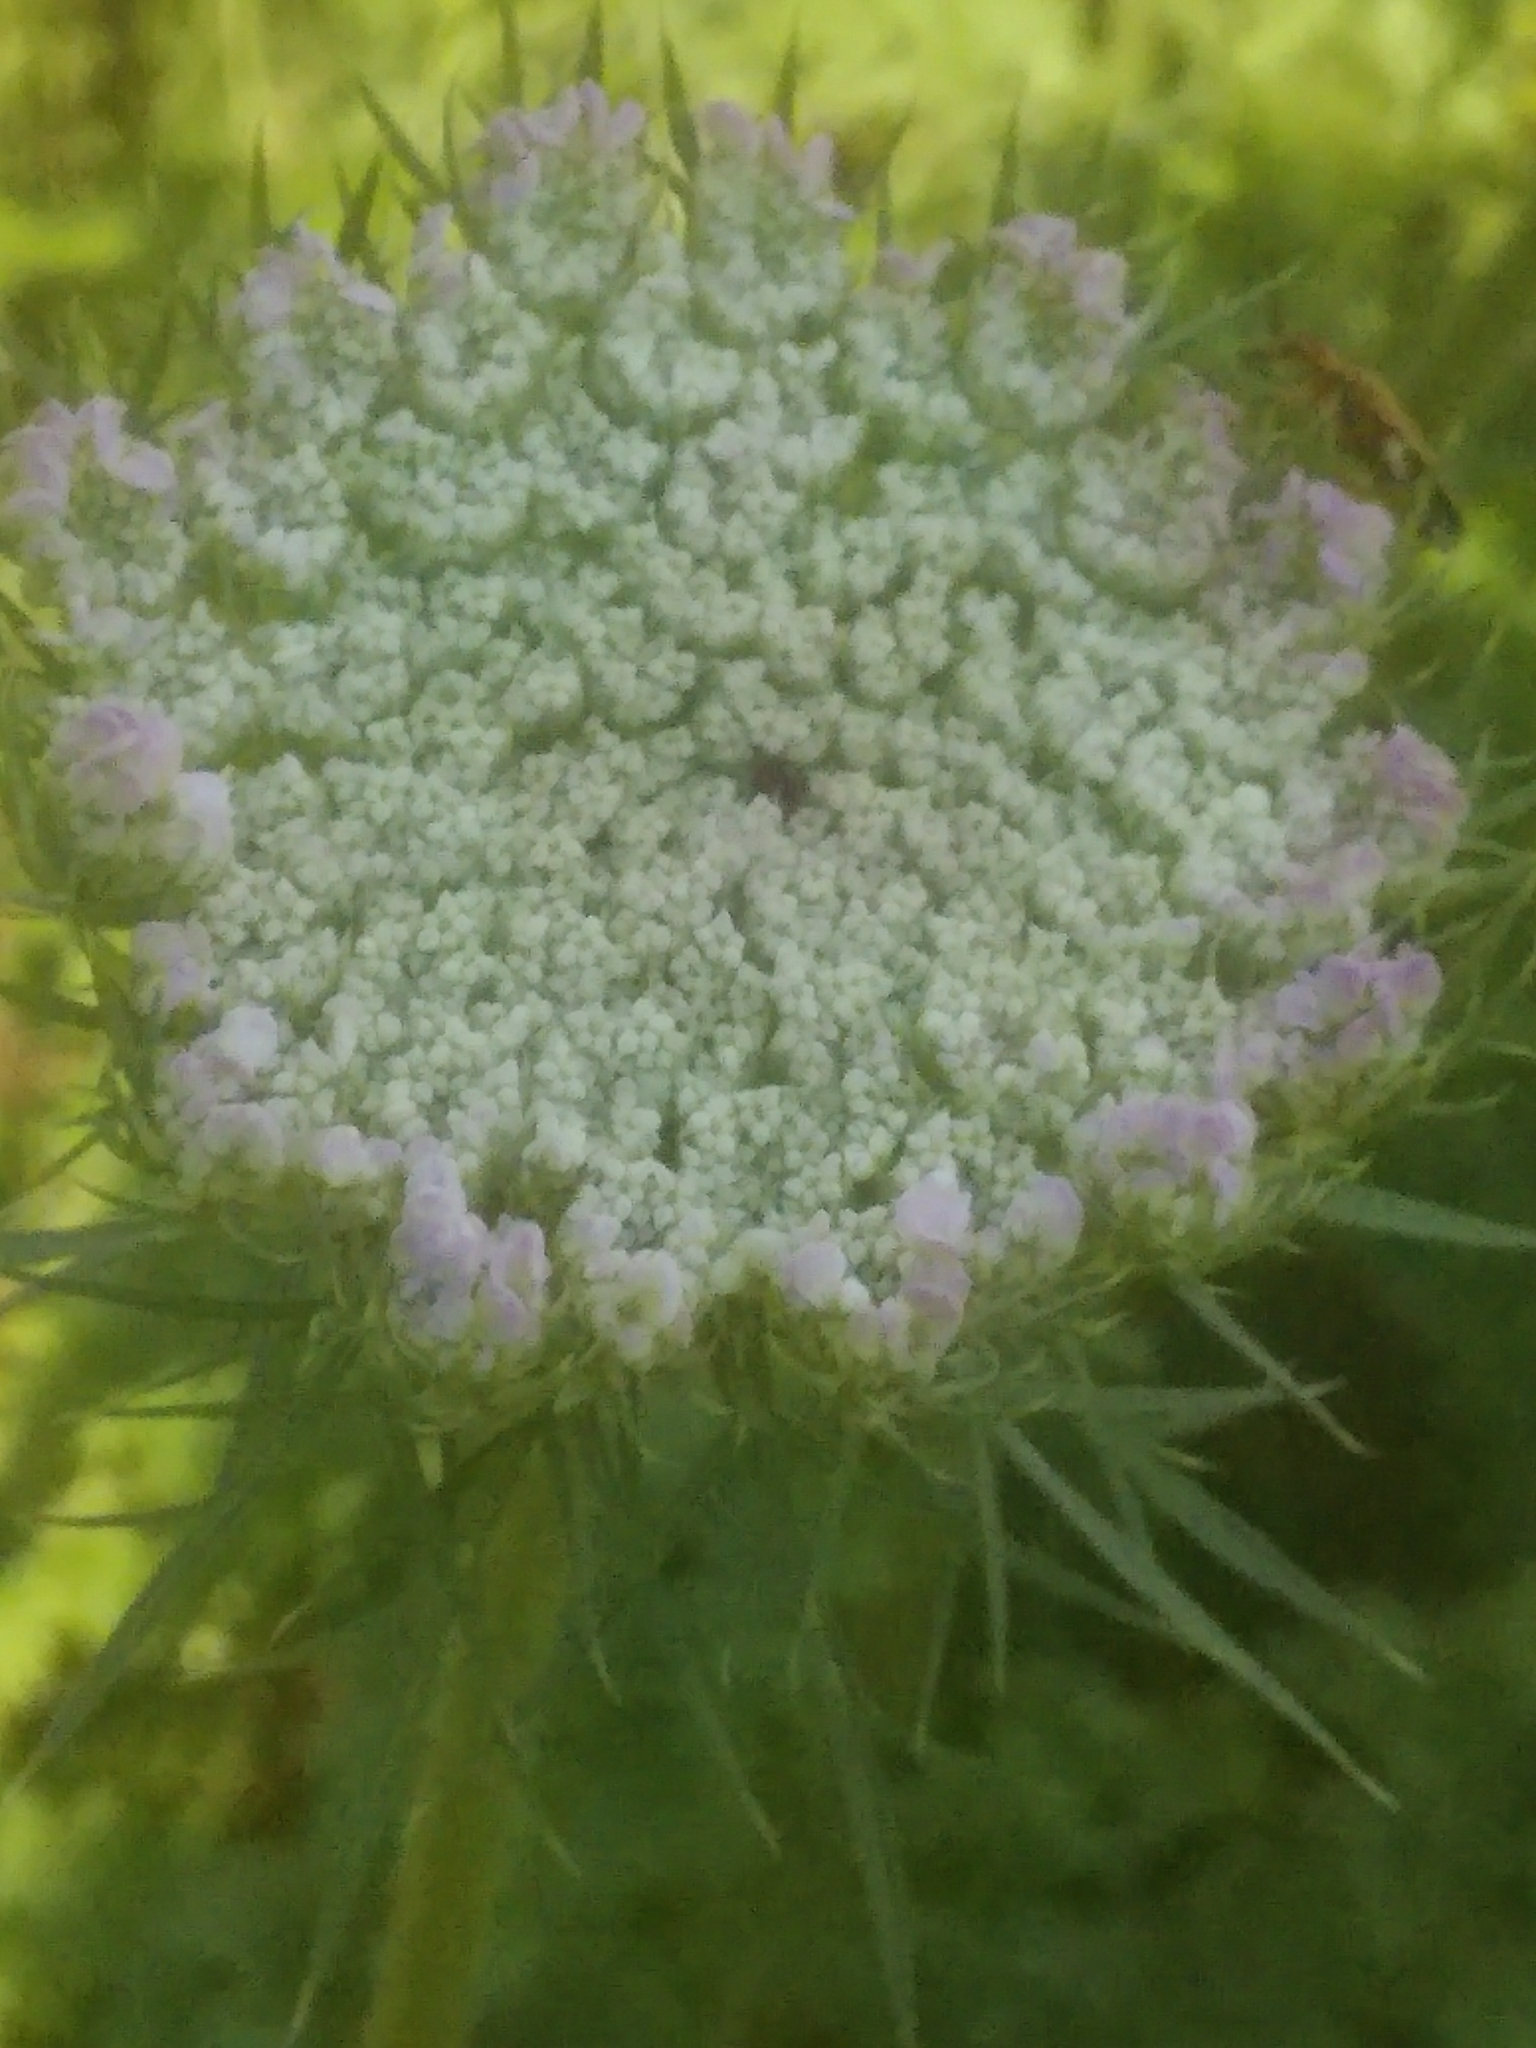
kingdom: Plantae
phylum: Tracheophyta
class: Magnoliopsida
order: Apiales
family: Apiaceae
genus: Daucus
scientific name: Daucus carota
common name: Wild carrot
